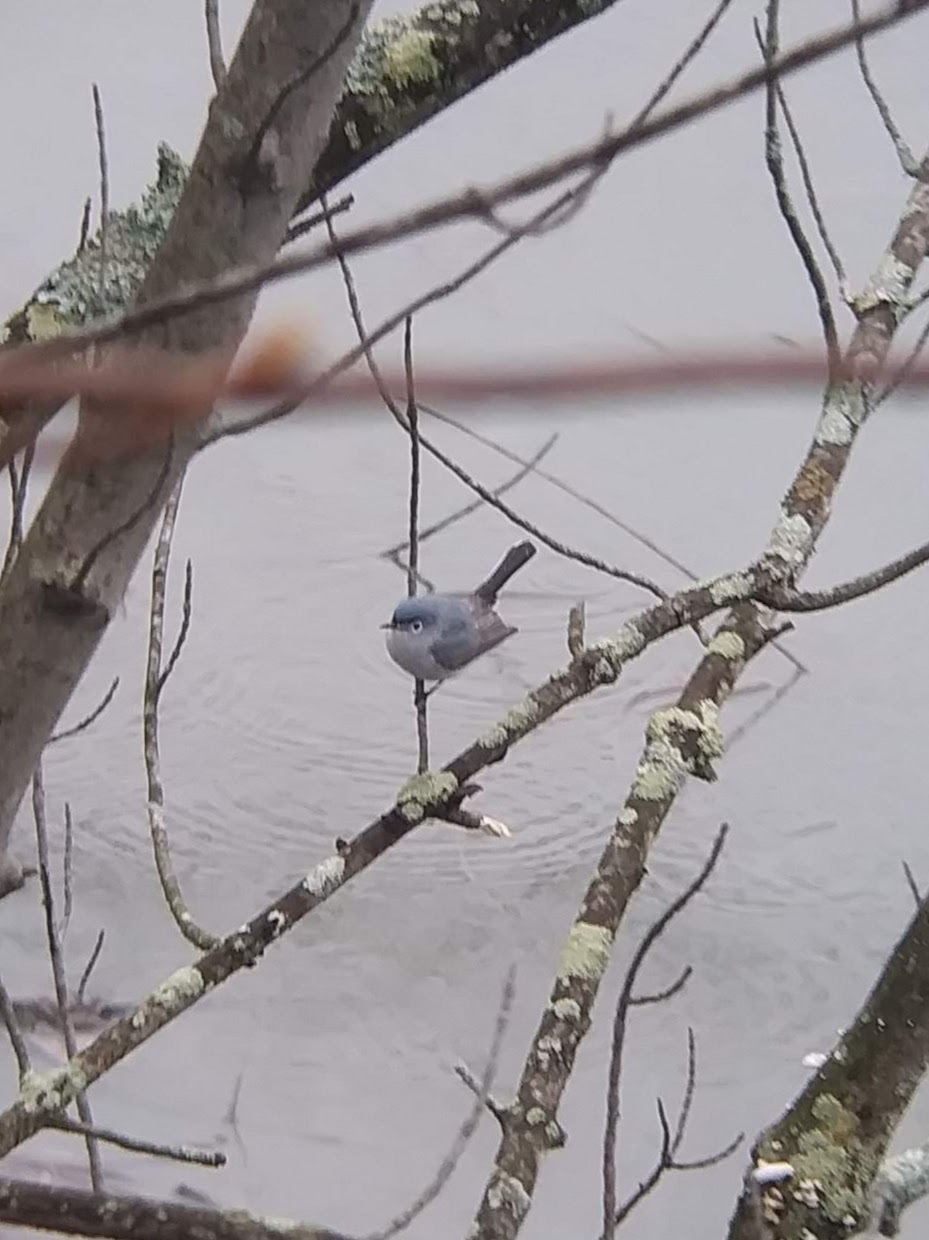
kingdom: Animalia
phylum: Chordata
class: Aves
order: Passeriformes
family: Polioptilidae
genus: Polioptila
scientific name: Polioptila caerulea
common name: Blue-gray gnatcatcher
